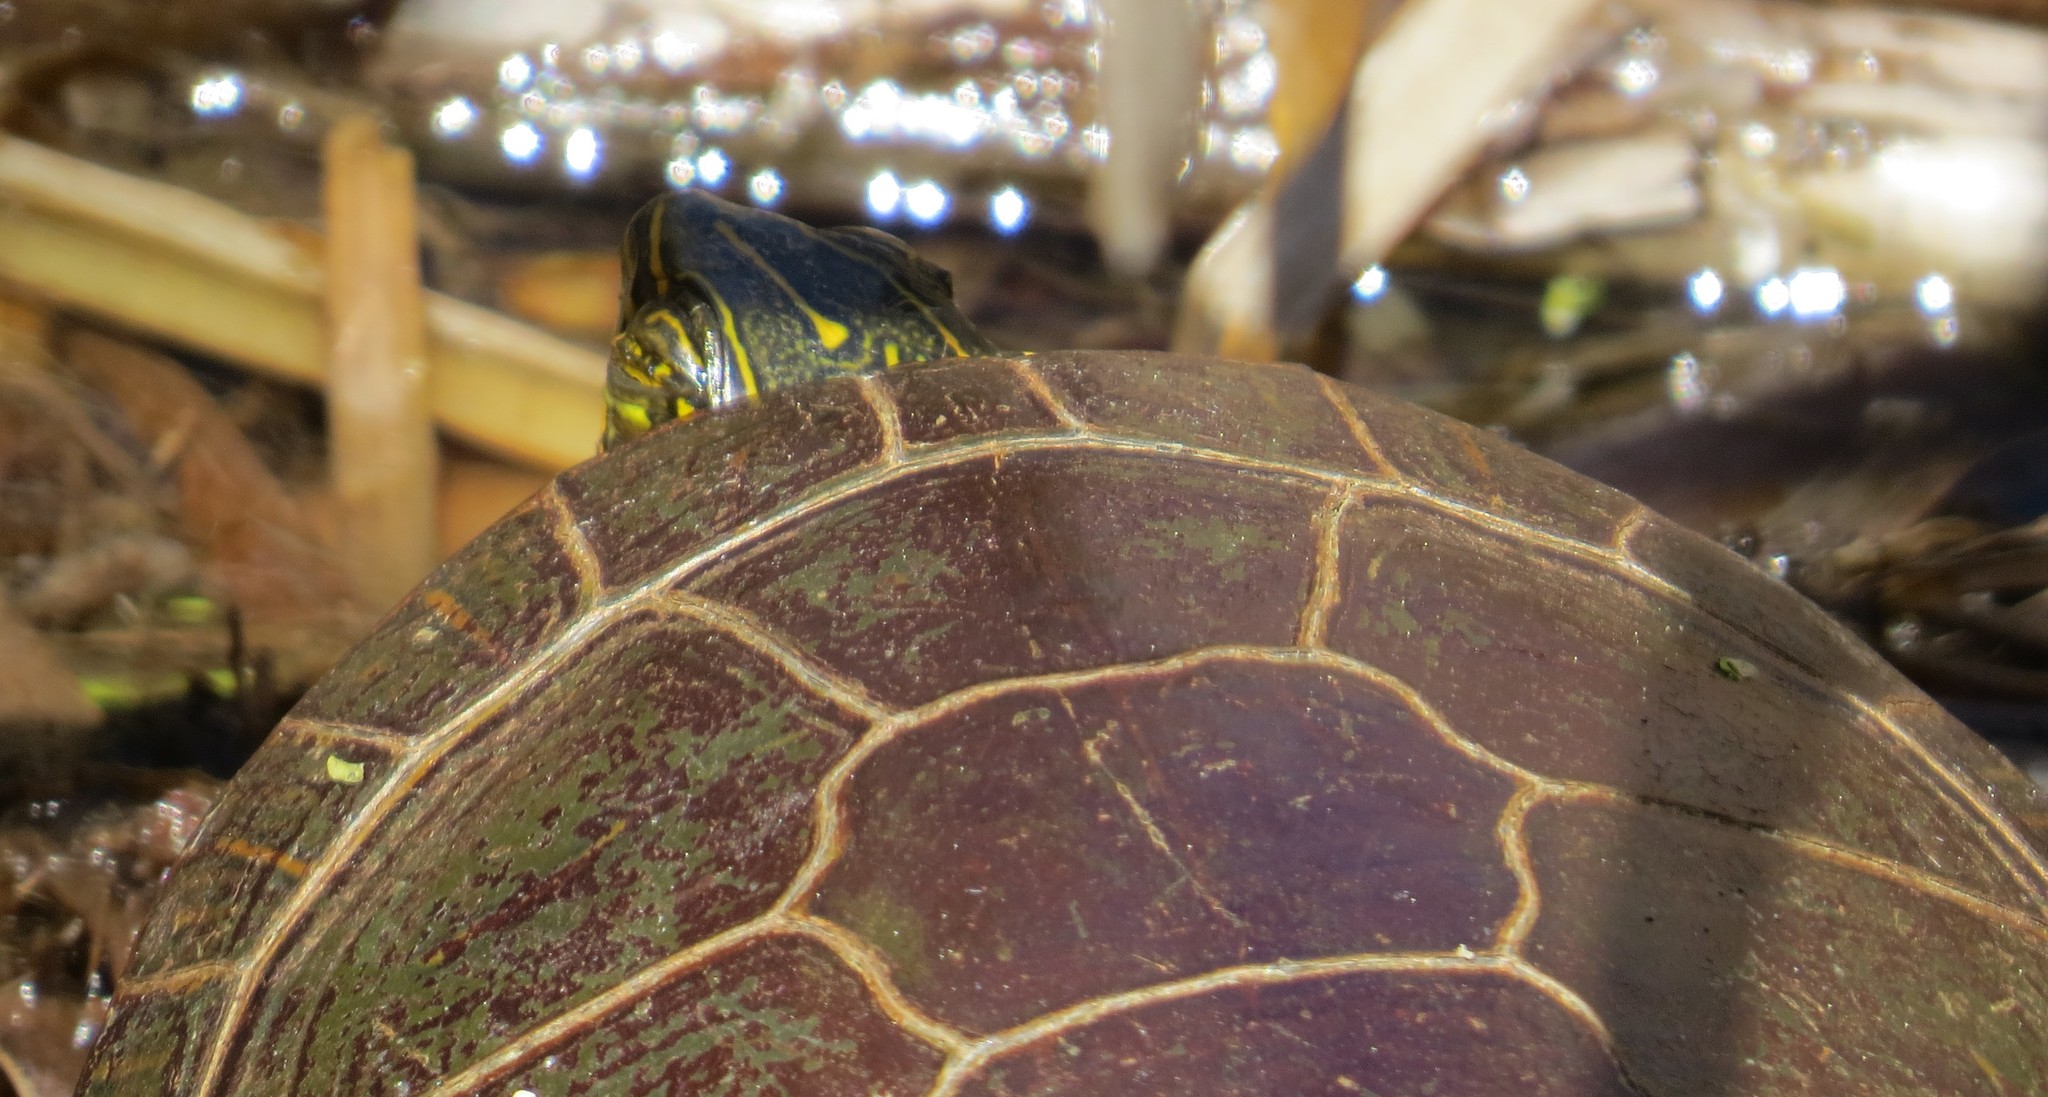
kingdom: Animalia
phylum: Chordata
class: Testudines
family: Emydidae
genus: Chrysemys
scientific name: Chrysemys picta
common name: Painted turtle
